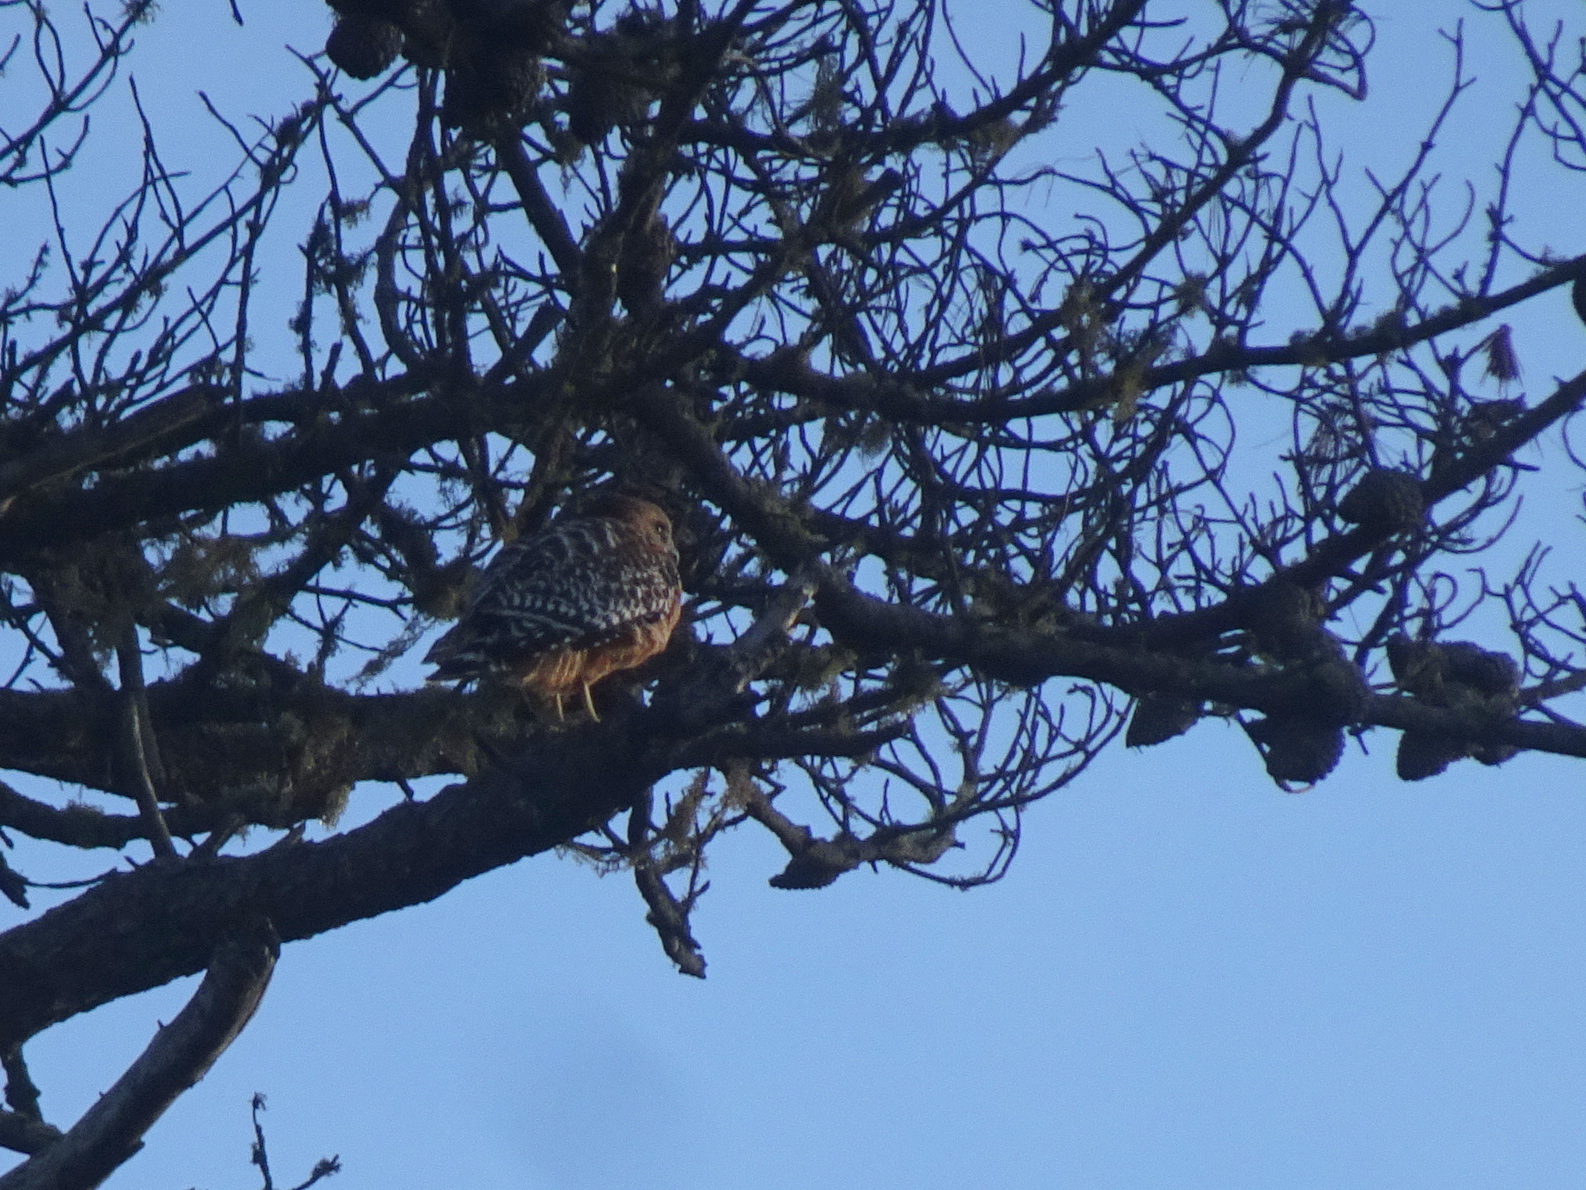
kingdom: Animalia
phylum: Chordata
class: Aves
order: Accipitriformes
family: Accipitridae
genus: Buteo
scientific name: Buteo lineatus
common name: Red-shouldered hawk
